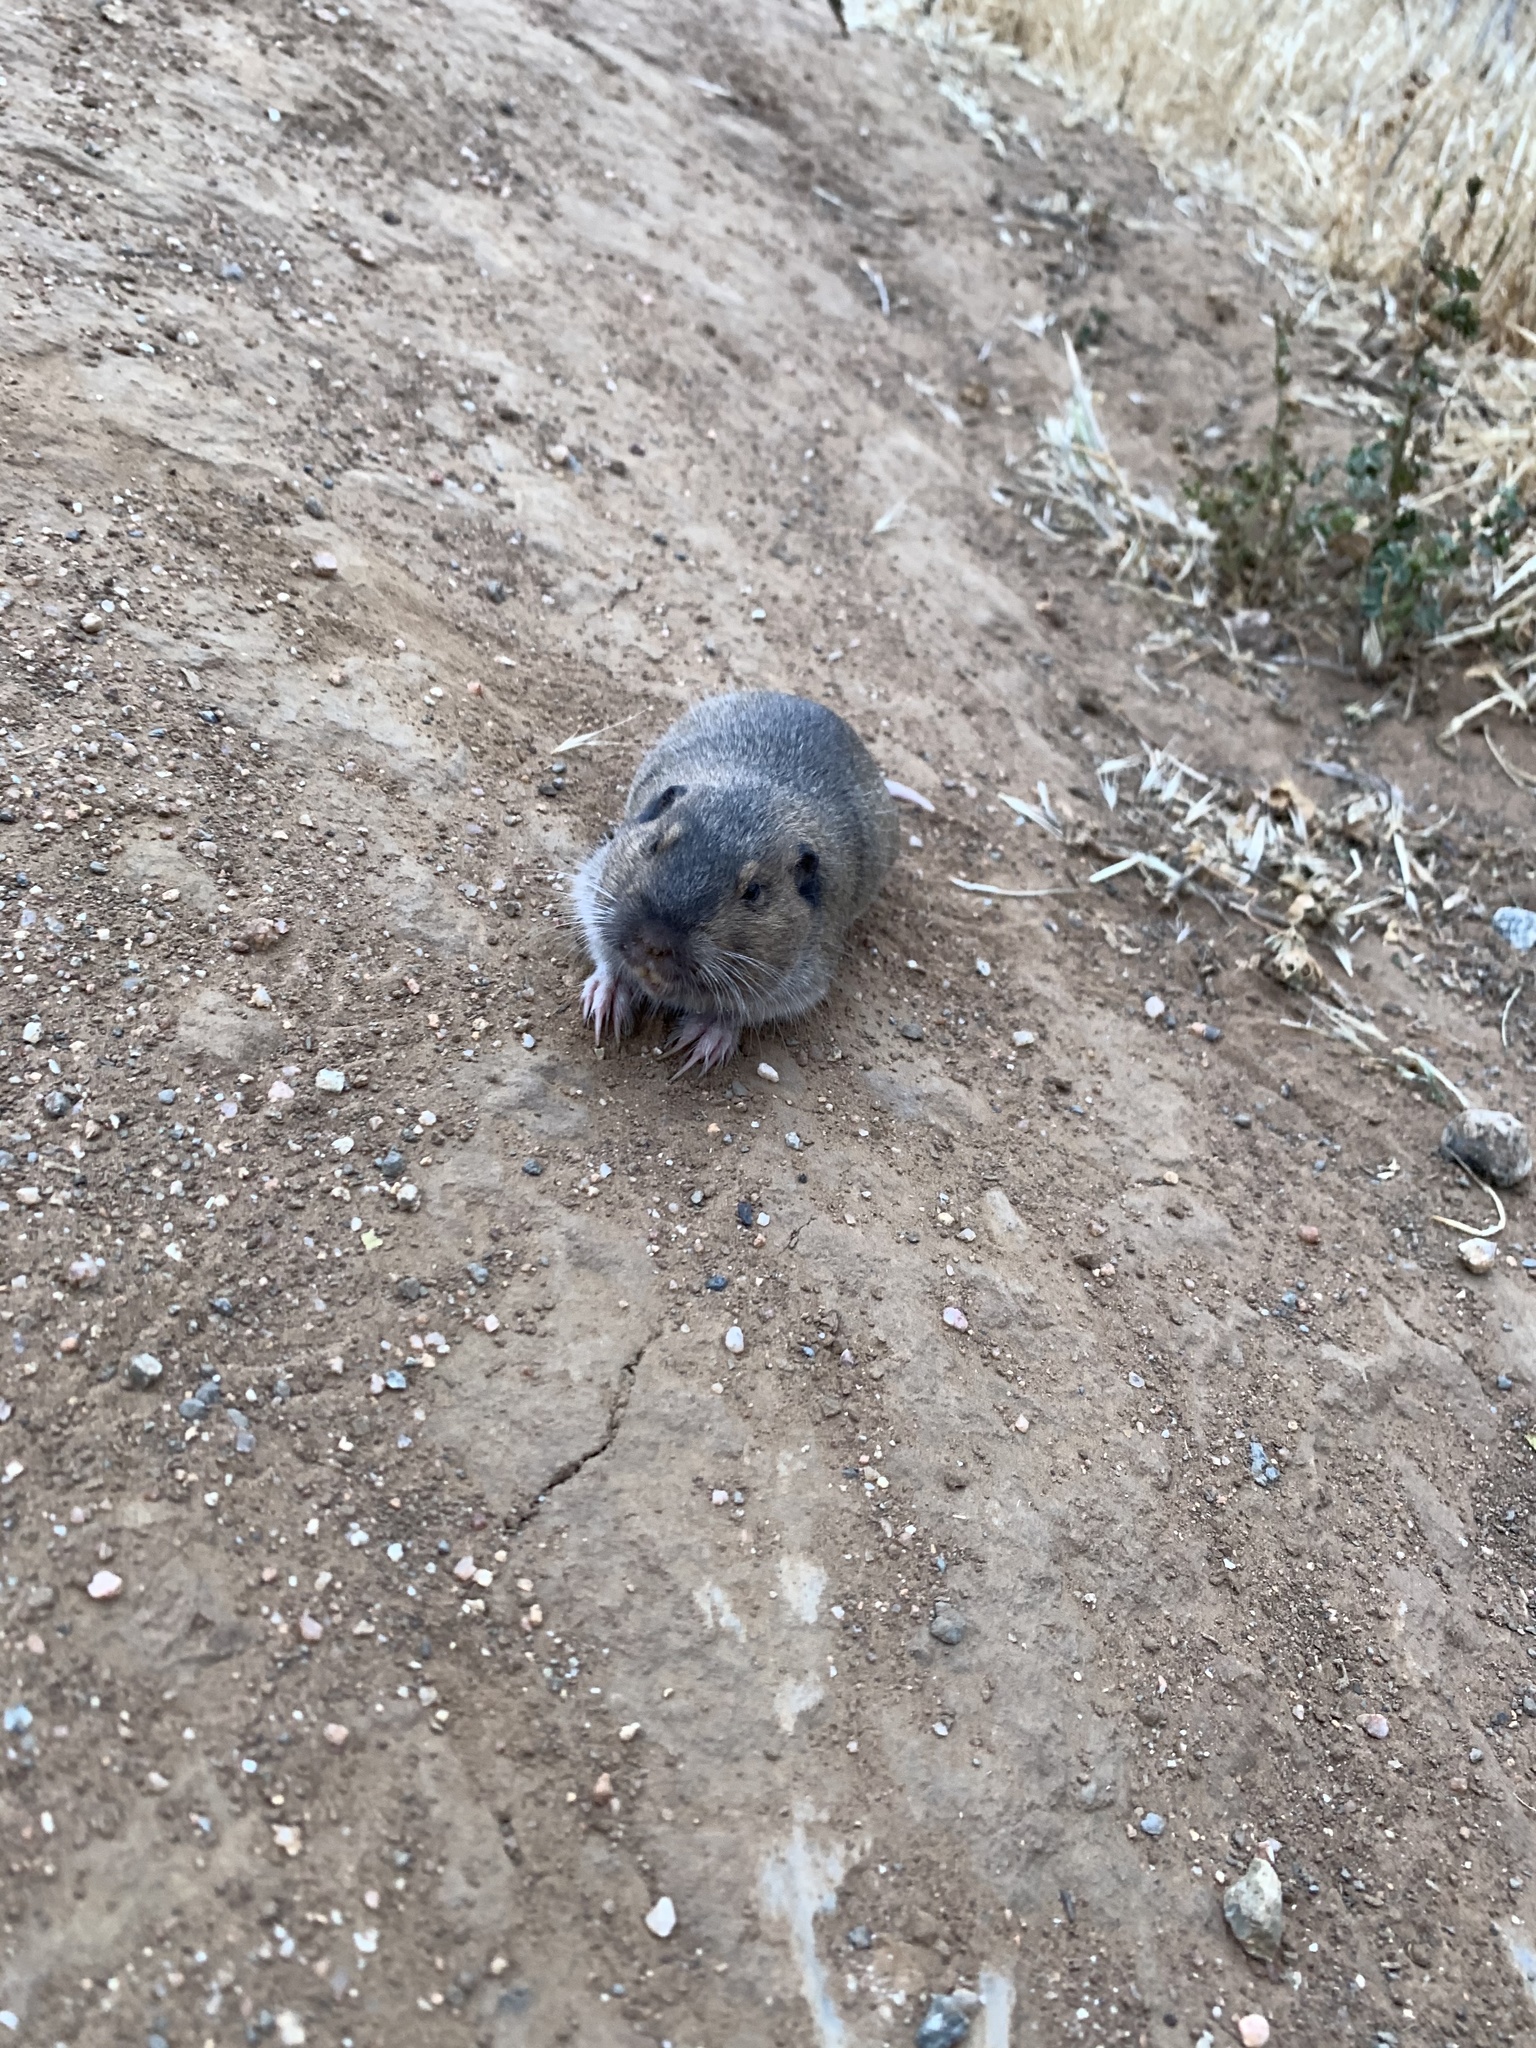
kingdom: Animalia
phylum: Chordata
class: Mammalia
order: Rodentia
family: Geomyidae
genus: Thomomys
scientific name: Thomomys bottae
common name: Botta's pocket gopher
